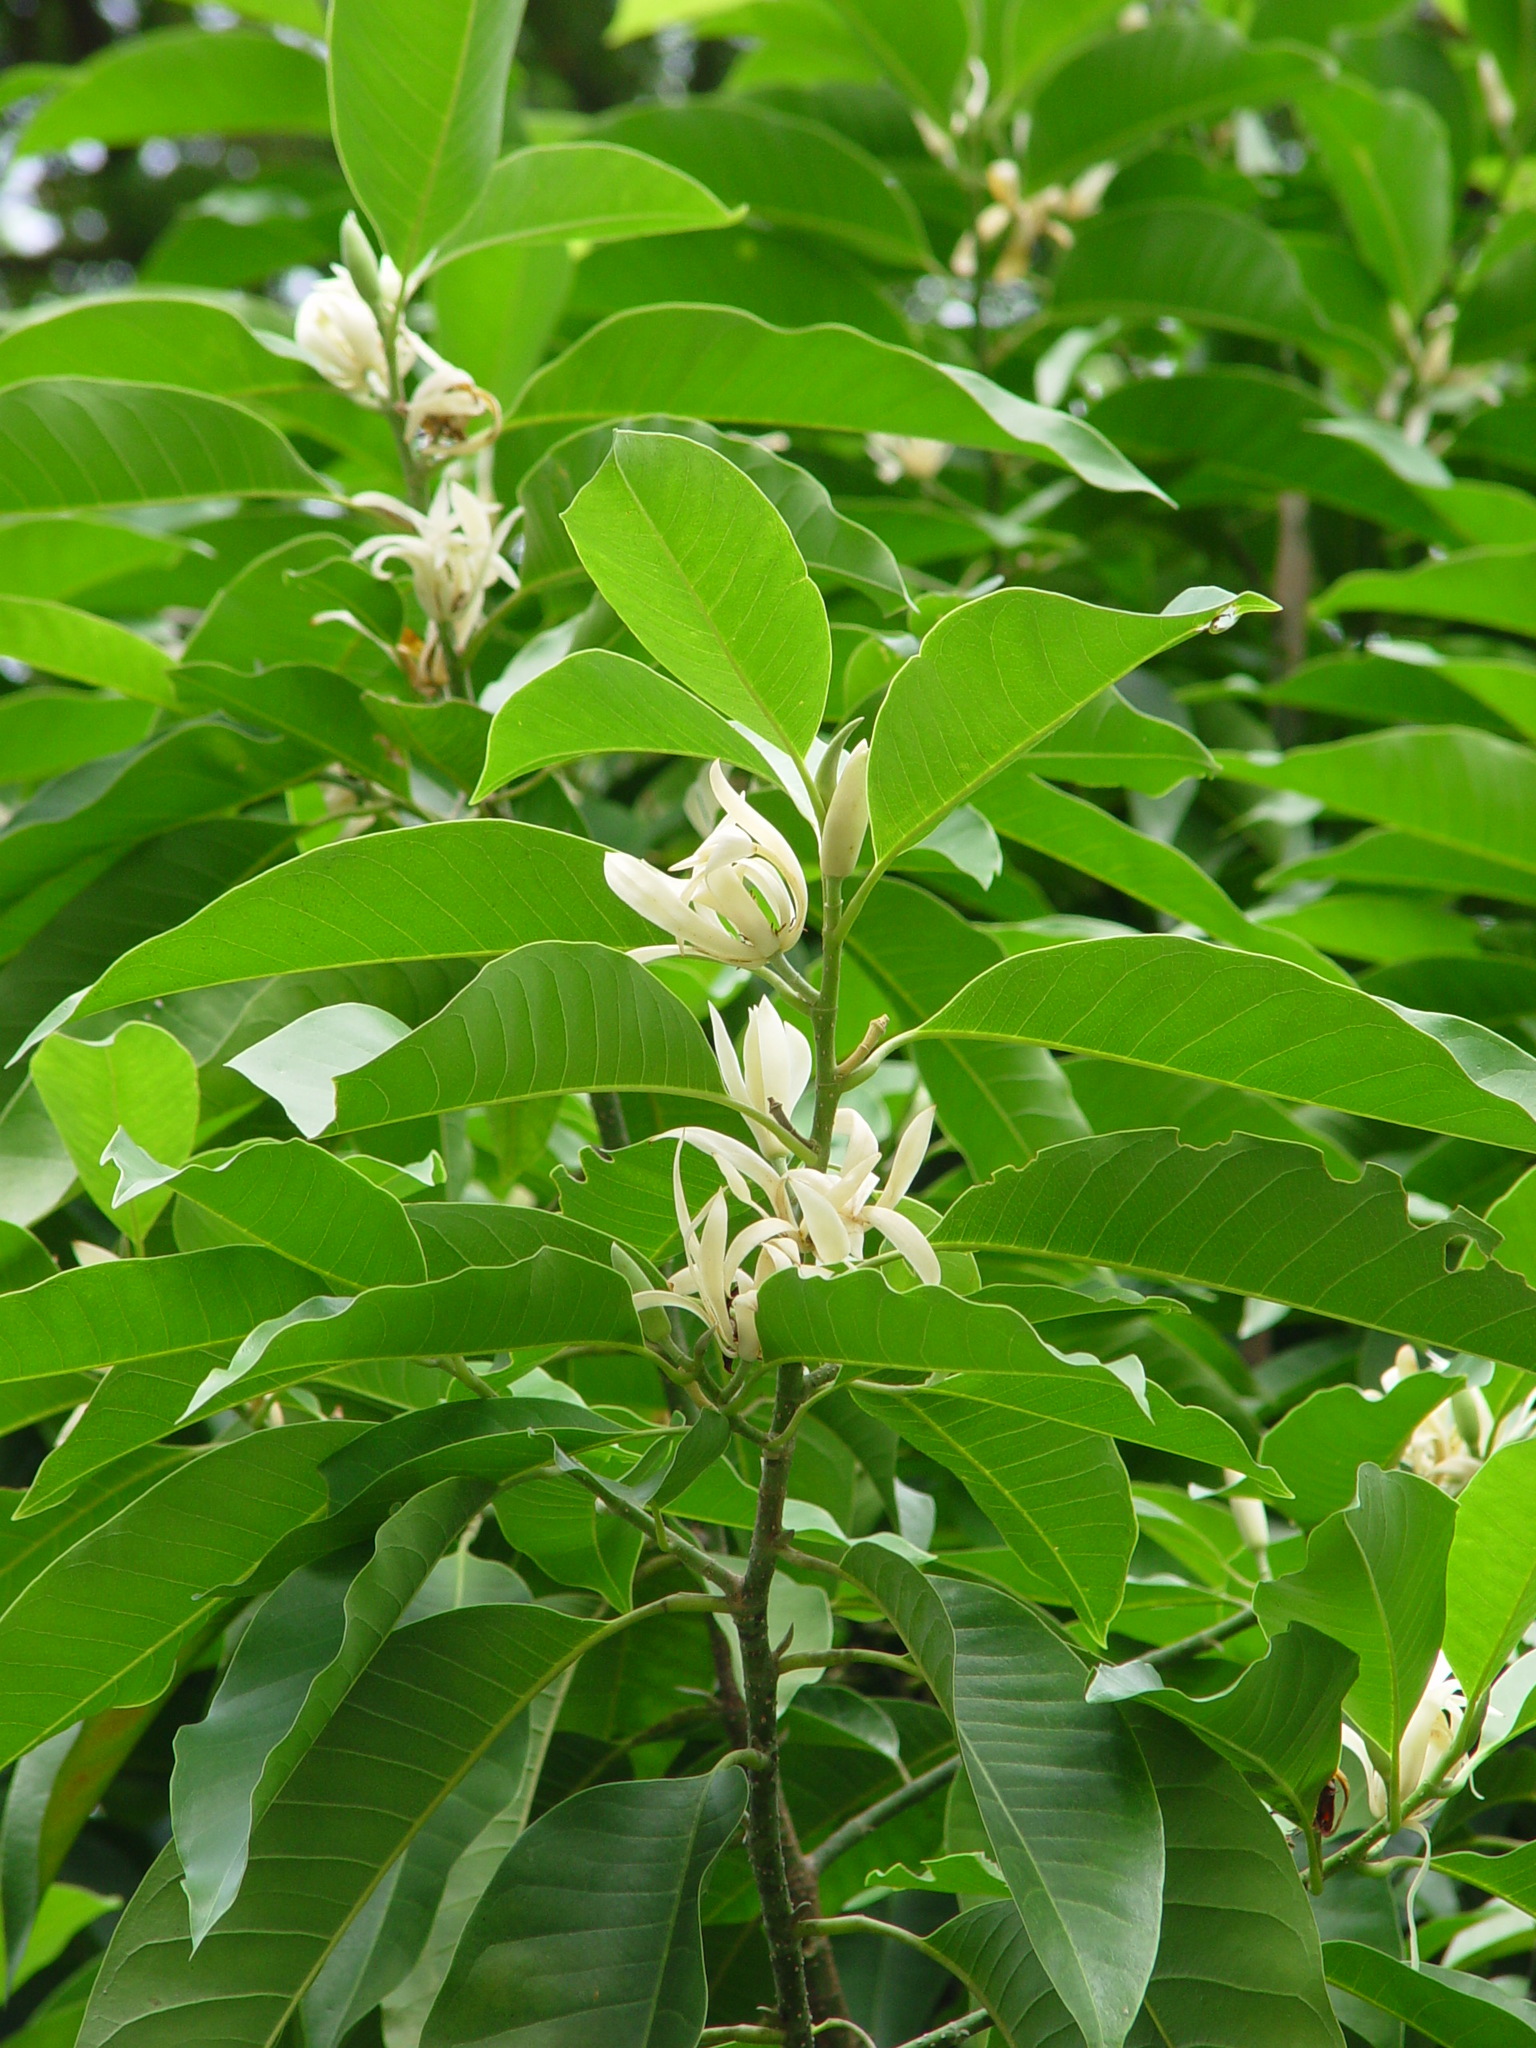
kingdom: Plantae
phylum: Tracheophyta
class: Magnoliopsida
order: Magnoliales
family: Magnoliaceae
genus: Magnolia
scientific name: Magnolia alba
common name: White champaca
